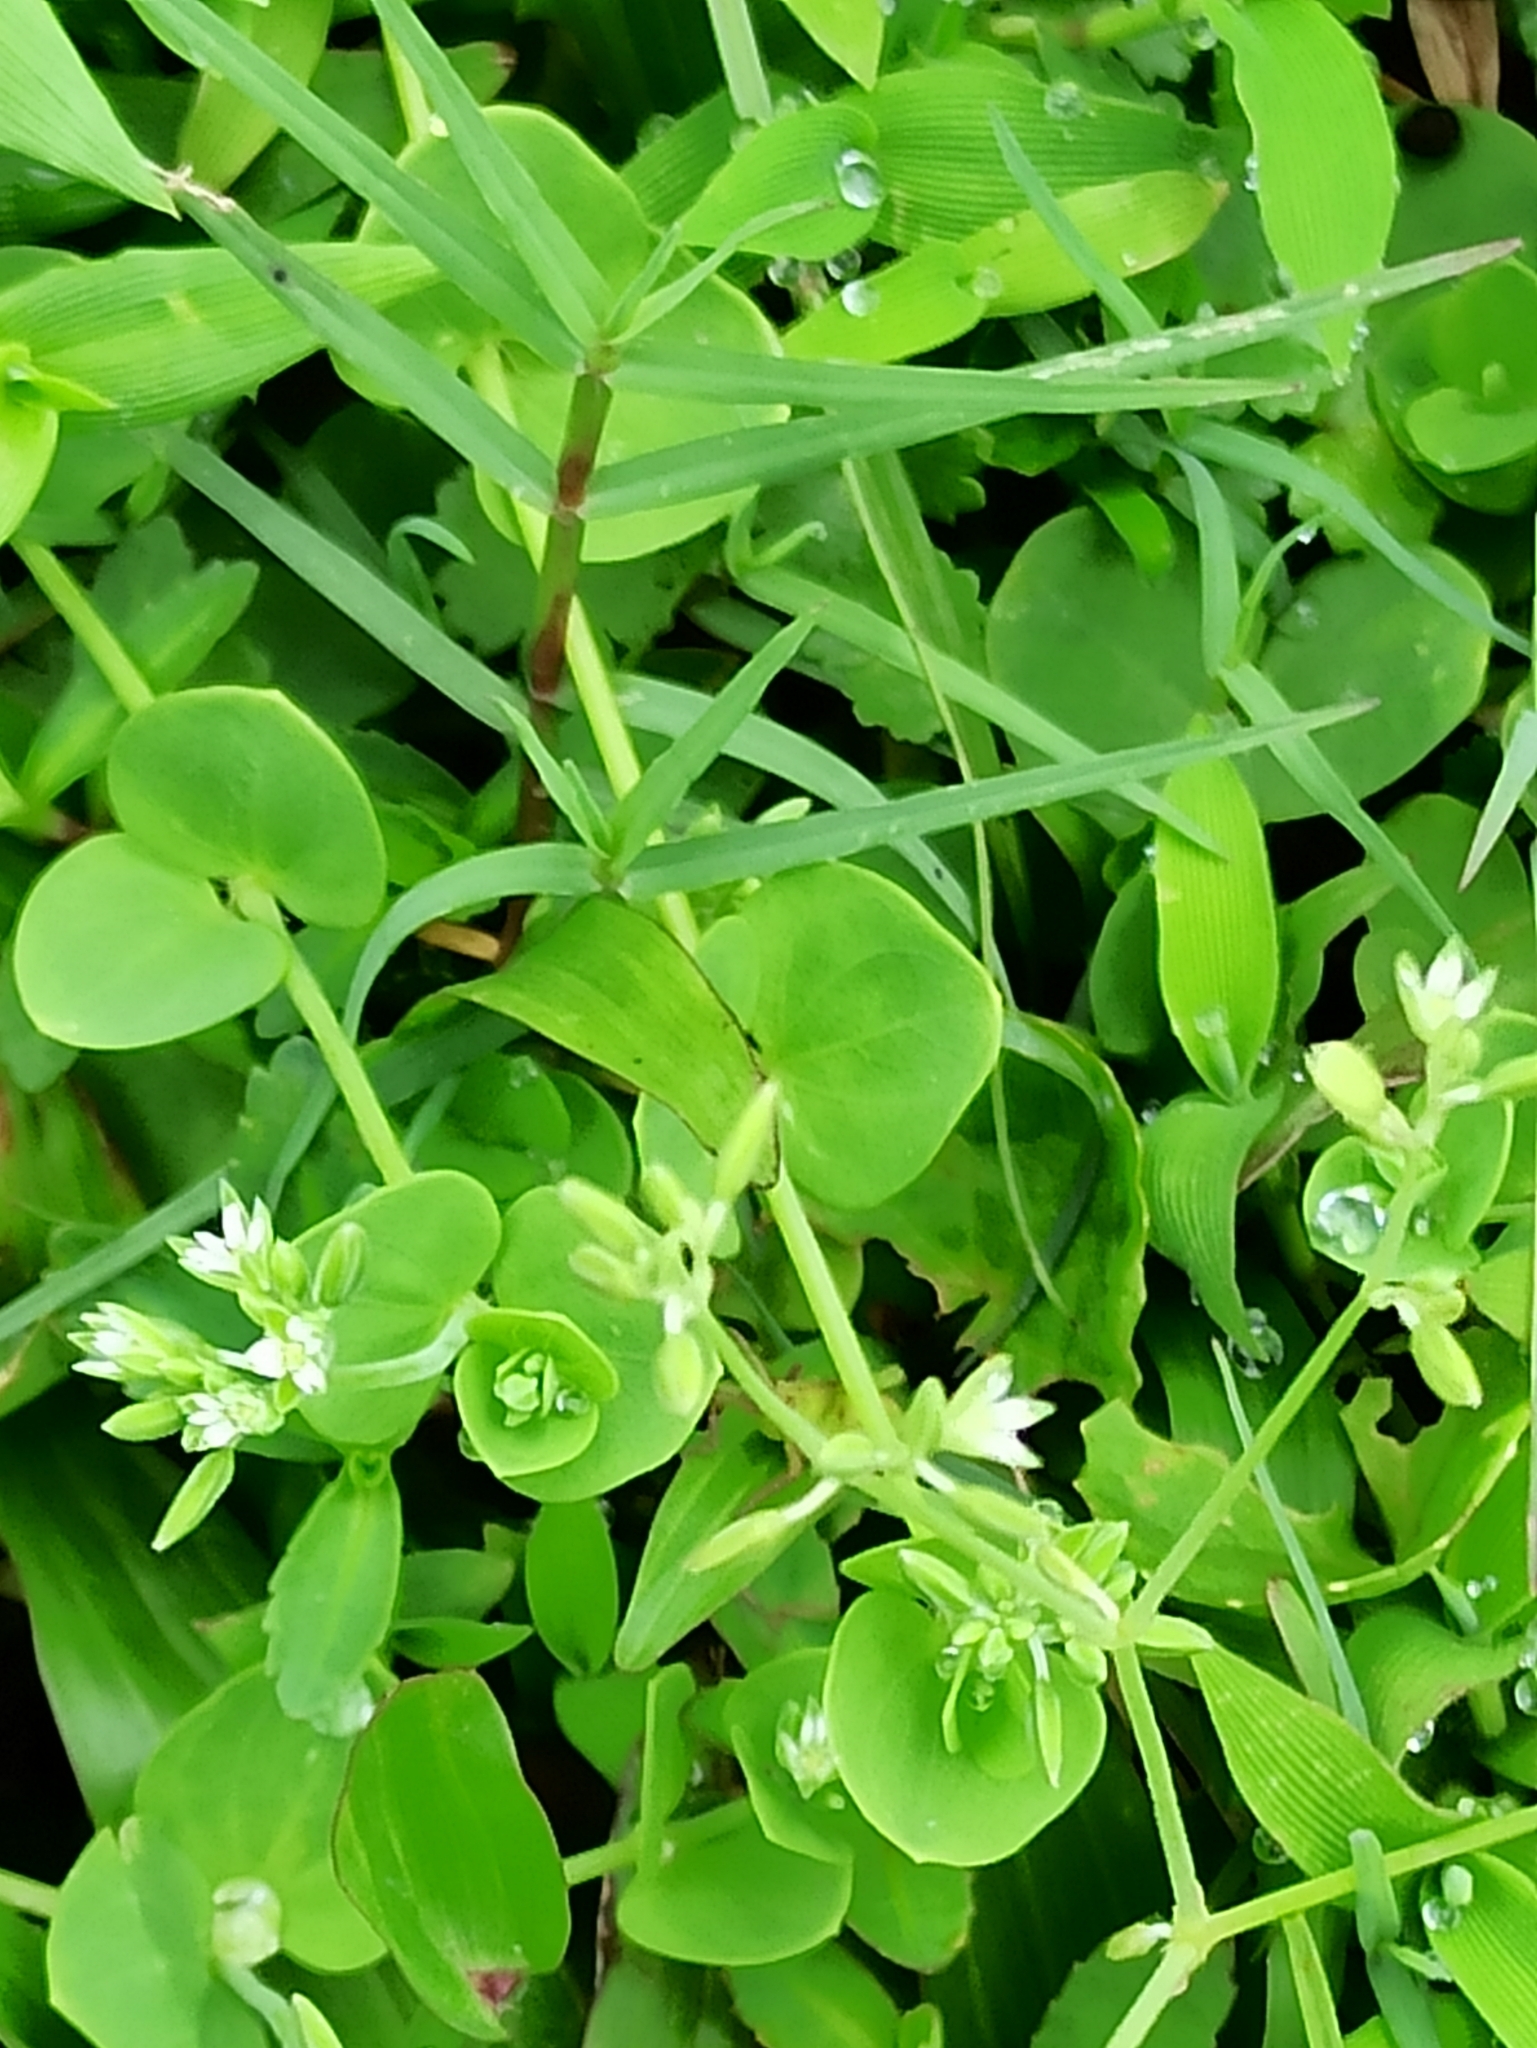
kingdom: Plantae
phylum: Tracheophyta
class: Magnoliopsida
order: Caryophyllales
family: Caryophyllaceae
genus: Drymaria
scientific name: Drymaria cordata
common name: Whitesnow
